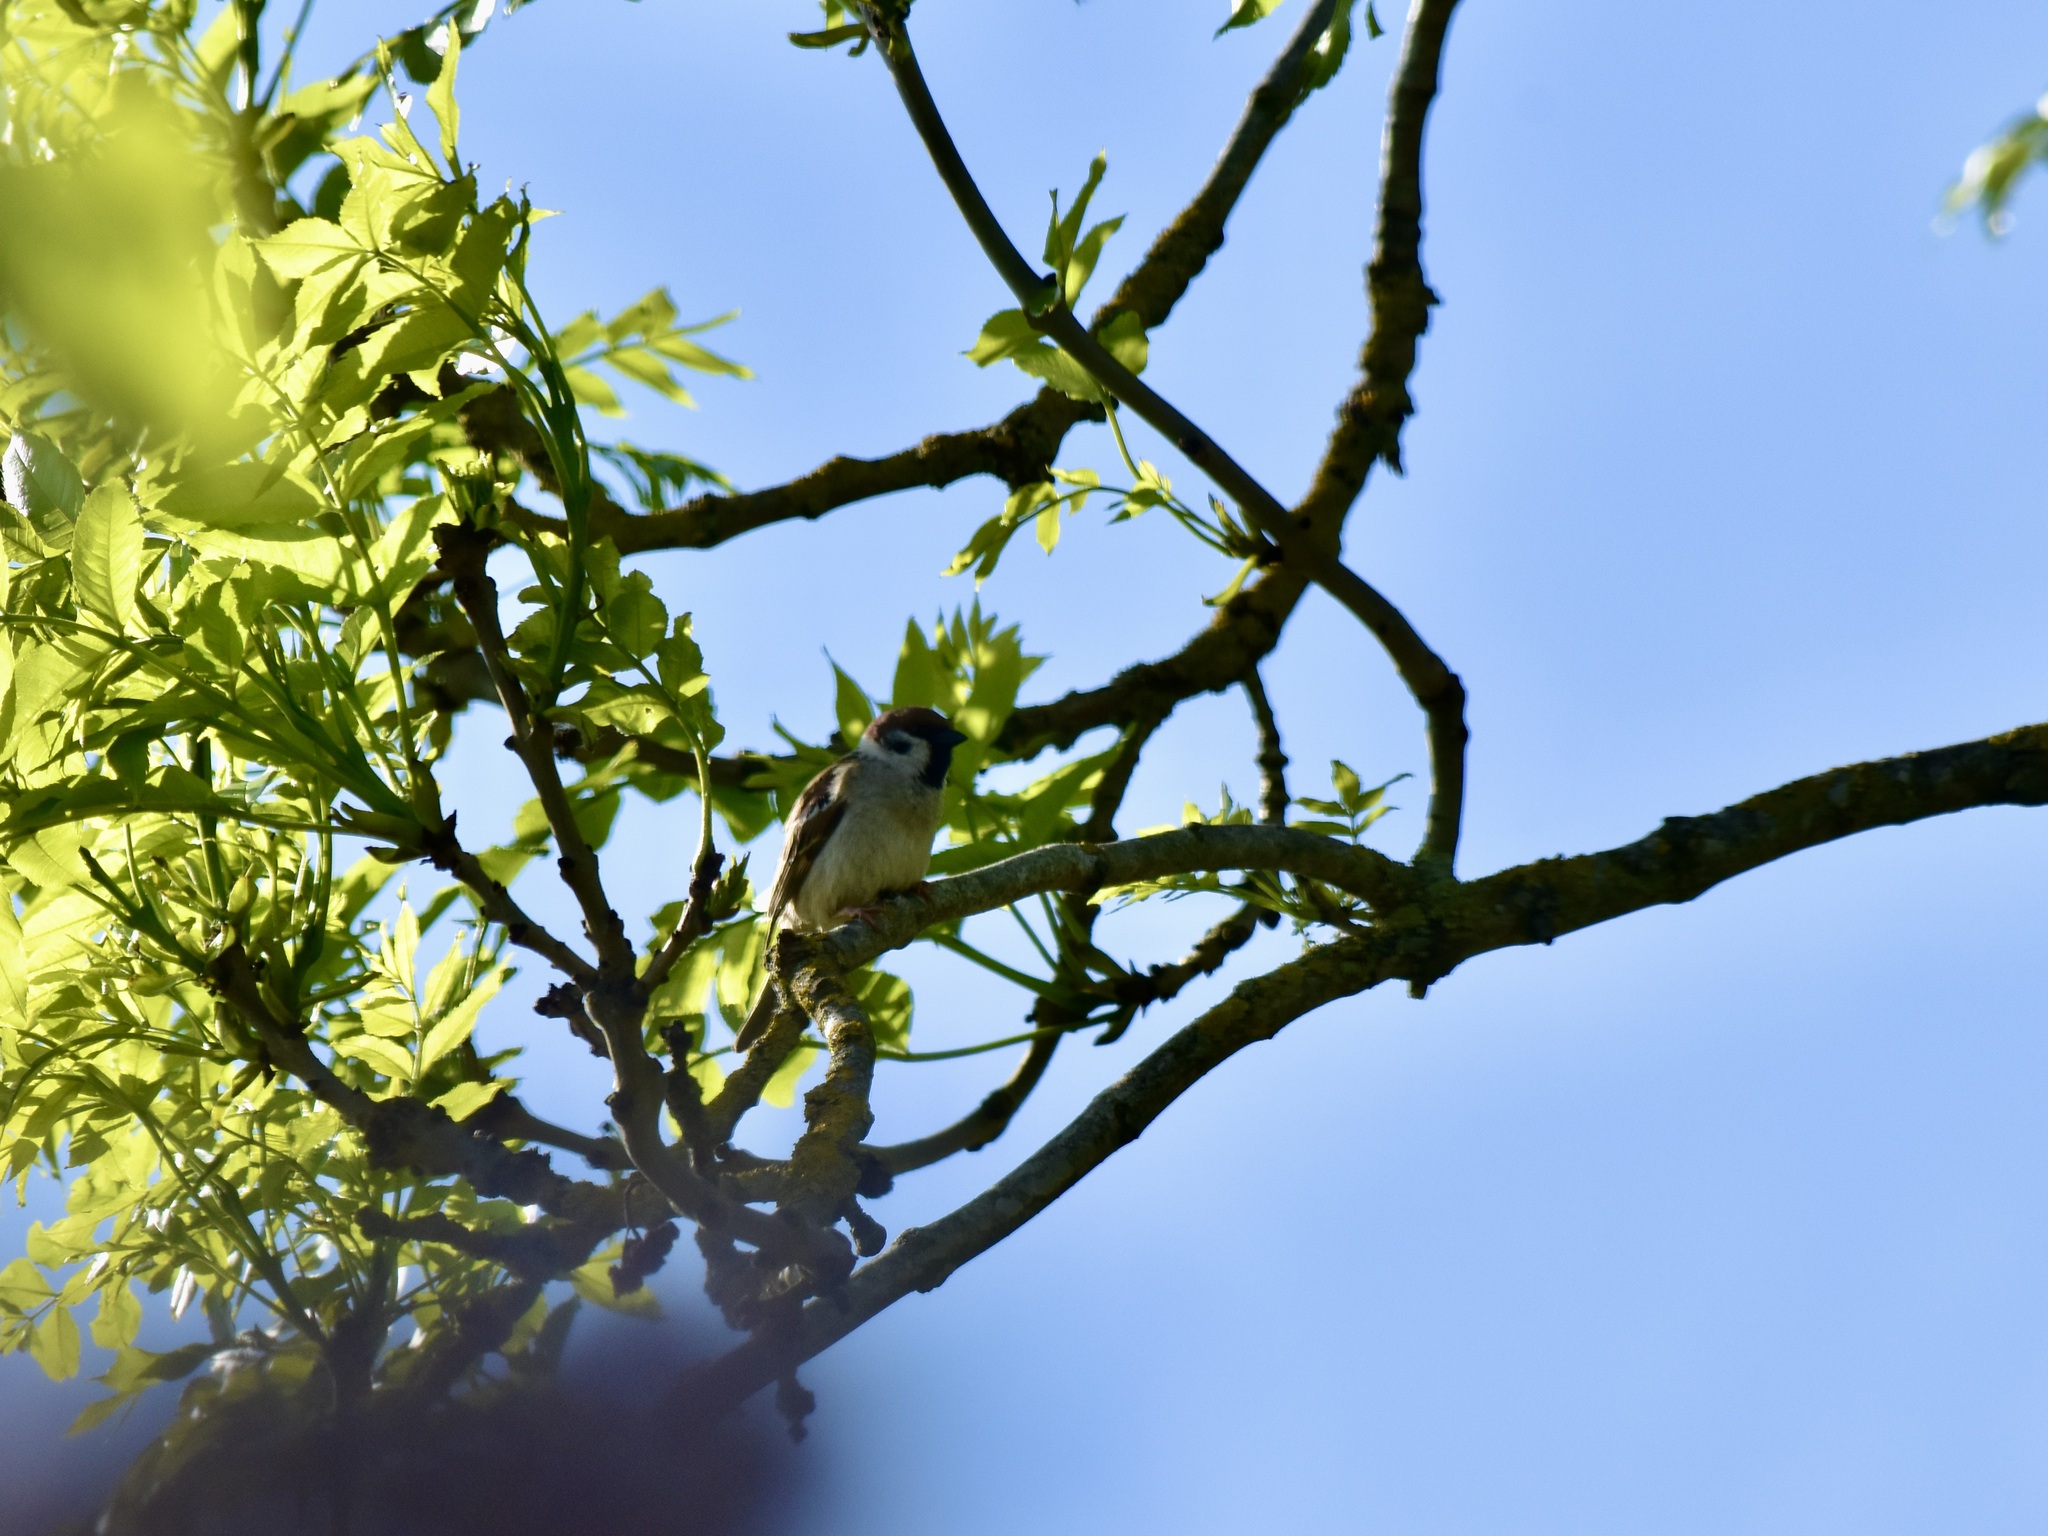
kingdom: Animalia
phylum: Chordata
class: Aves
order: Passeriformes
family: Passeridae
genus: Passer
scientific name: Passer montanus
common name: Eurasian tree sparrow
